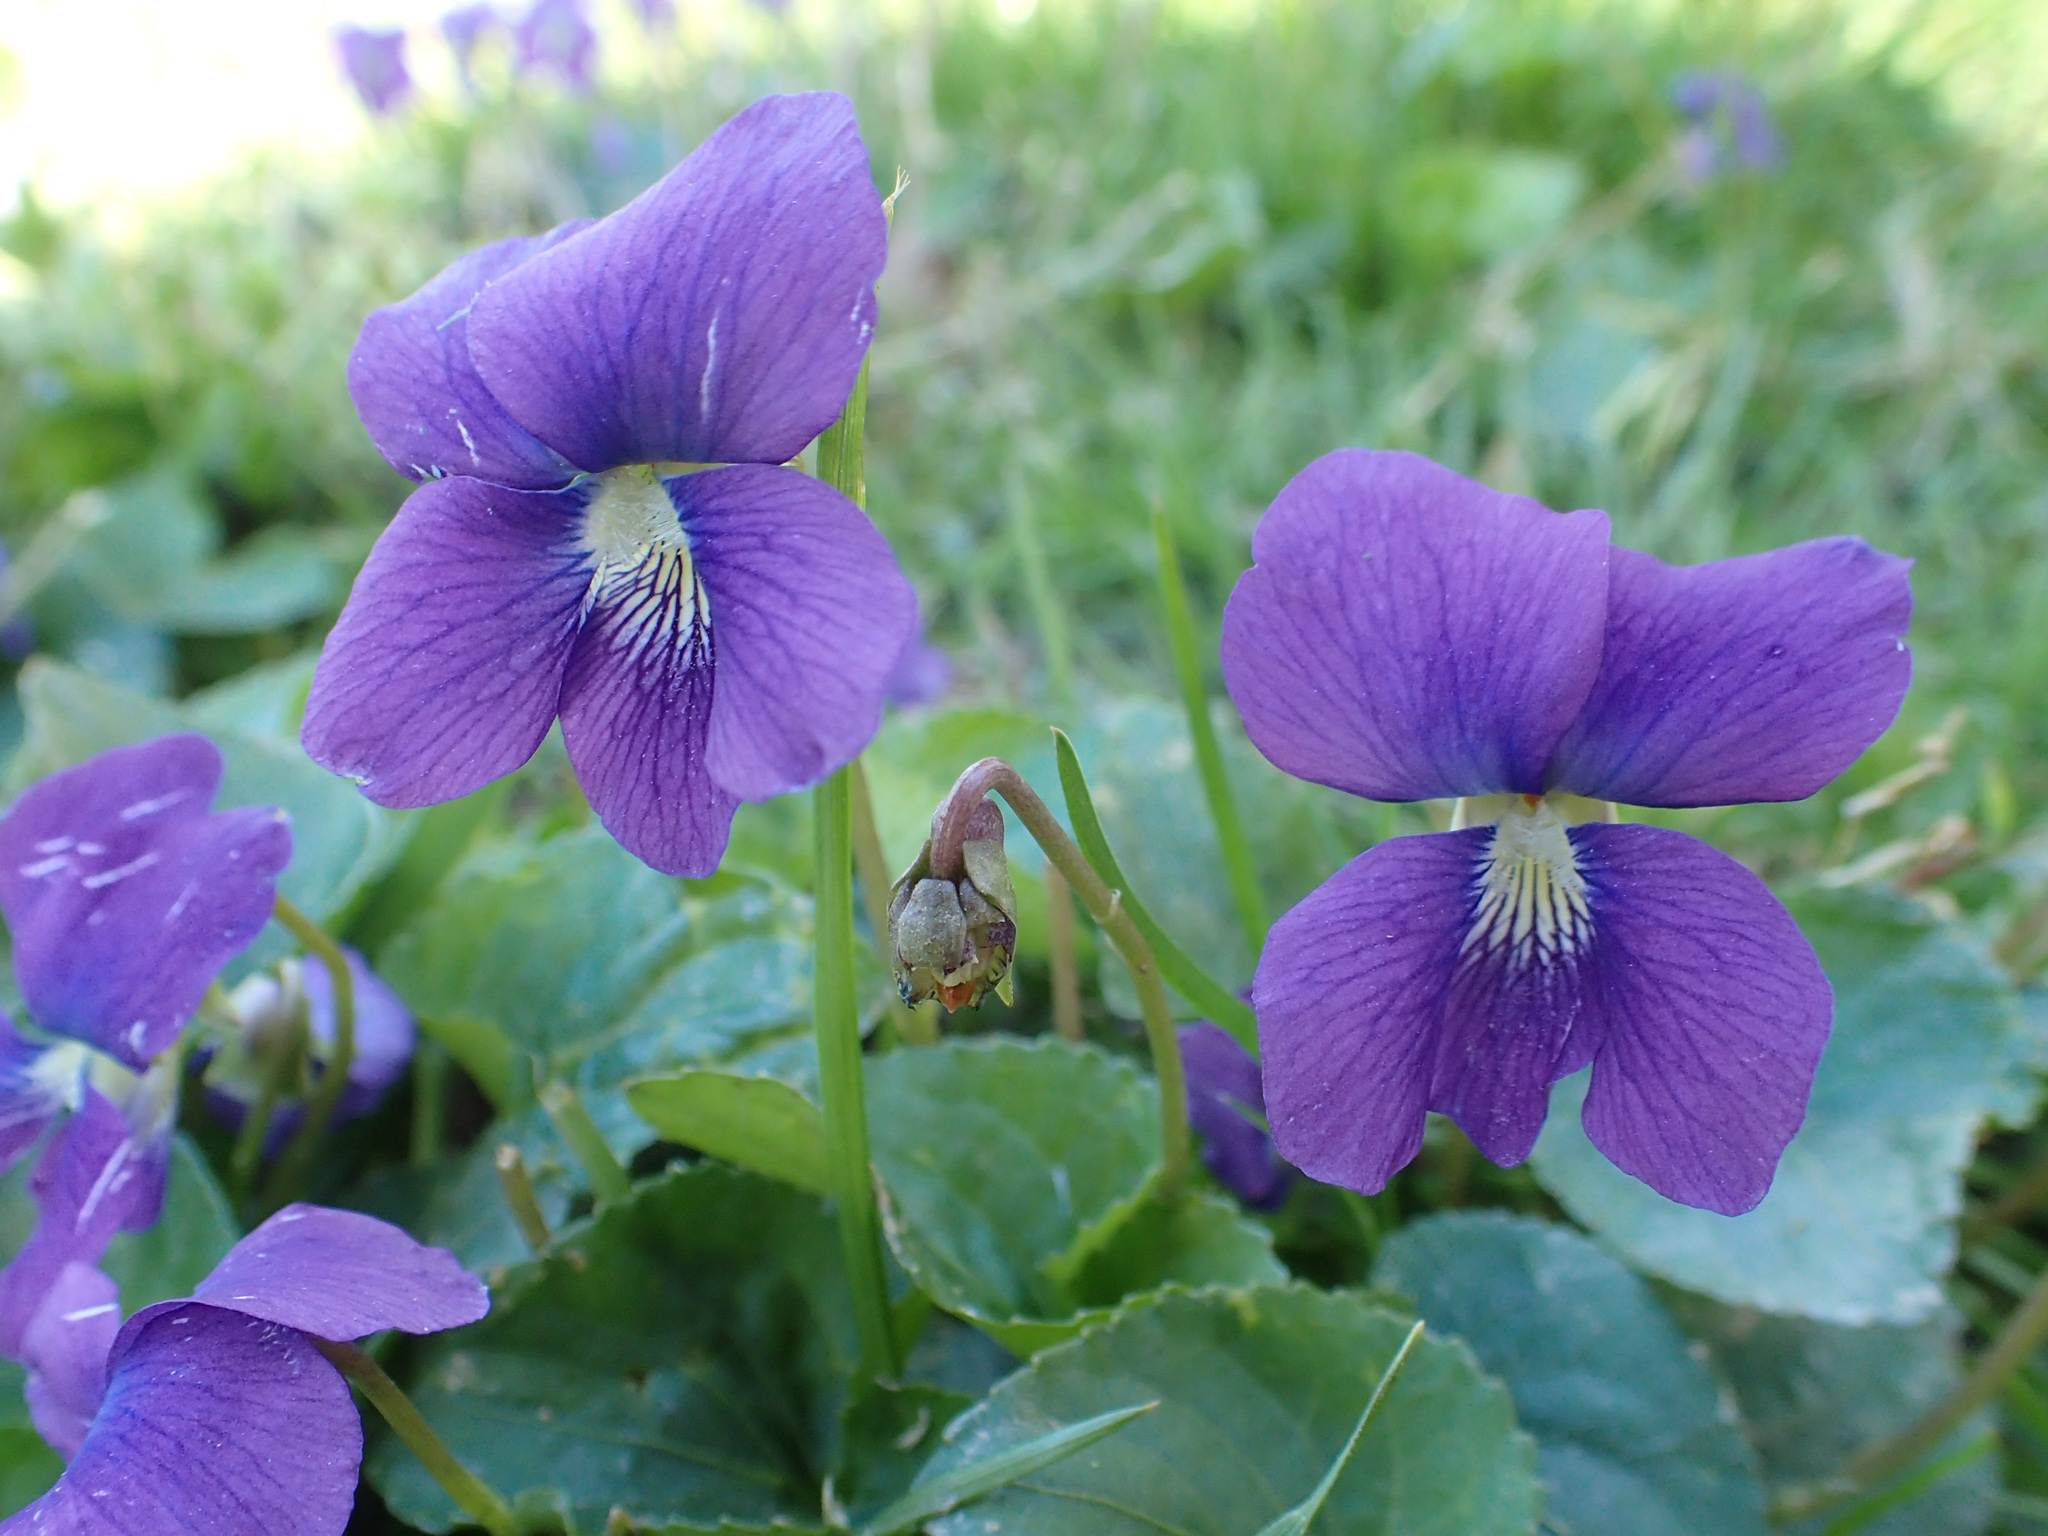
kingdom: Plantae
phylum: Tracheophyta
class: Magnoliopsida
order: Malpighiales
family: Violaceae
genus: Viola
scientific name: Viola sororia
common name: Dooryard violet
